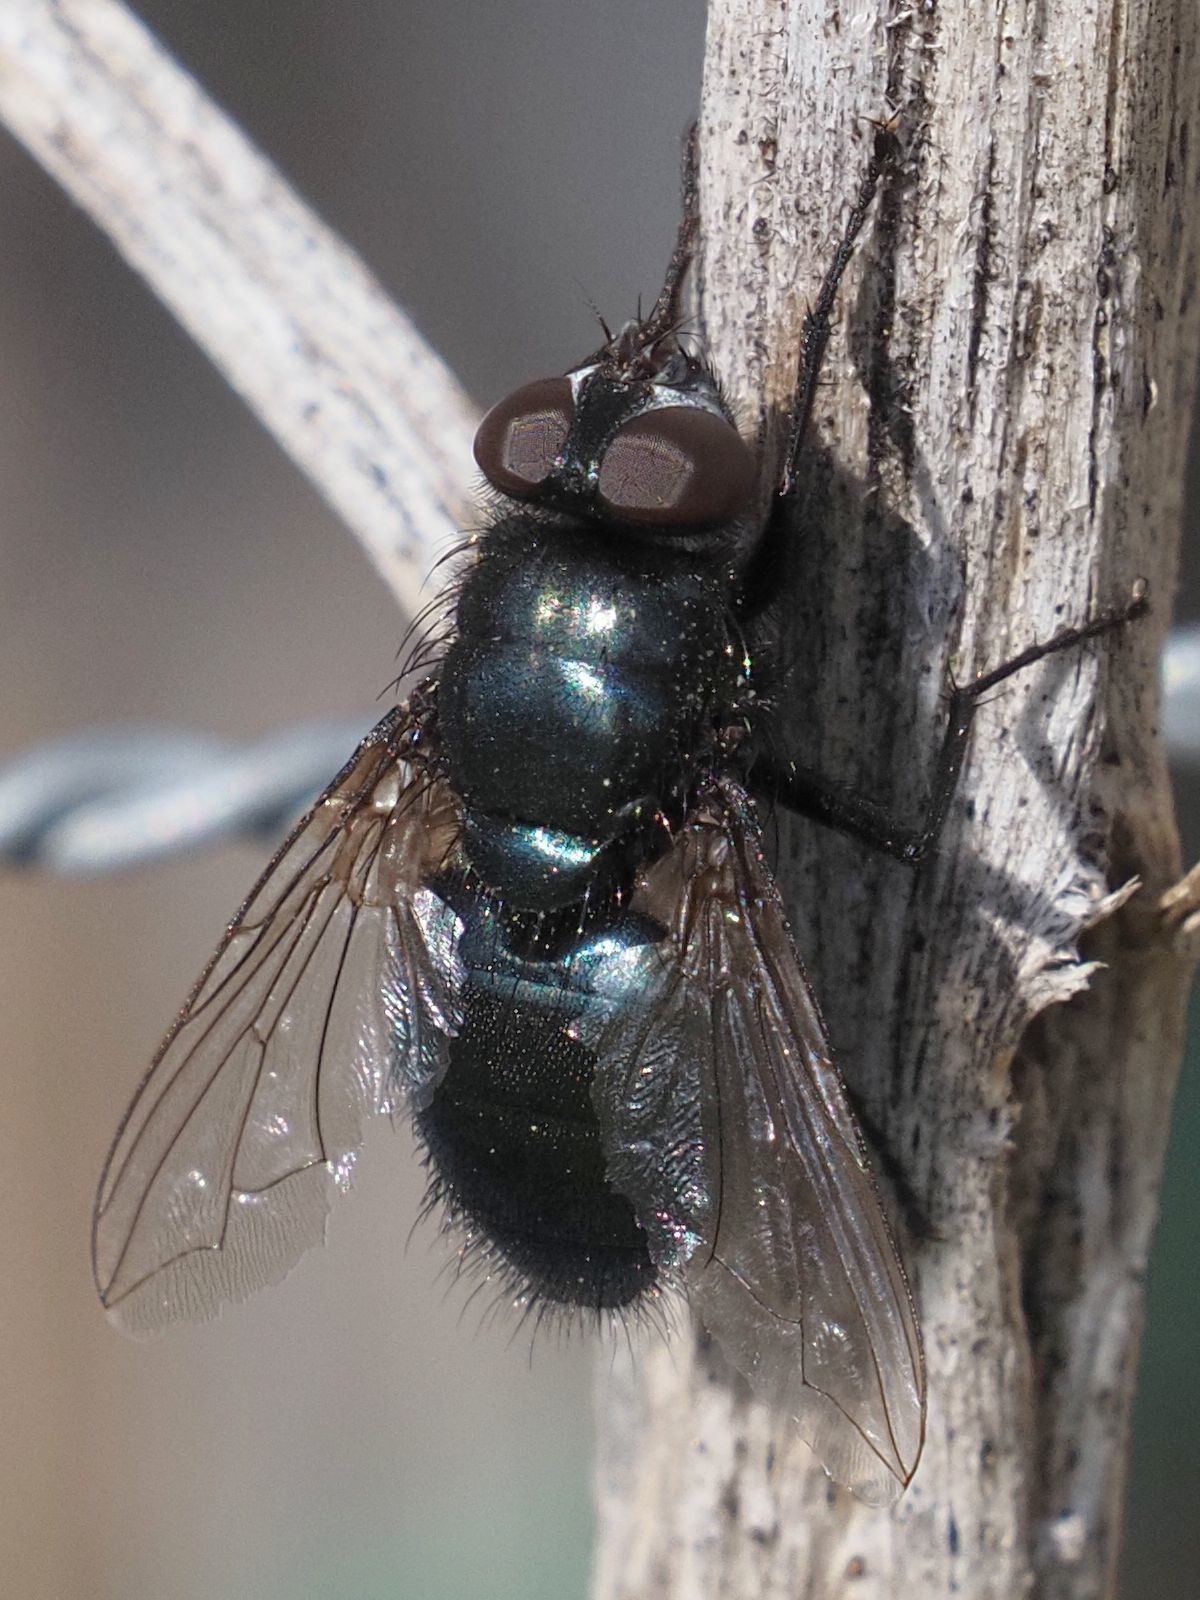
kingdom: Animalia
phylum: Arthropoda
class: Insecta
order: Diptera
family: Calliphoridae
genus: Protophormia
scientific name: Protophormia terraenovae
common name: Blackbottle
